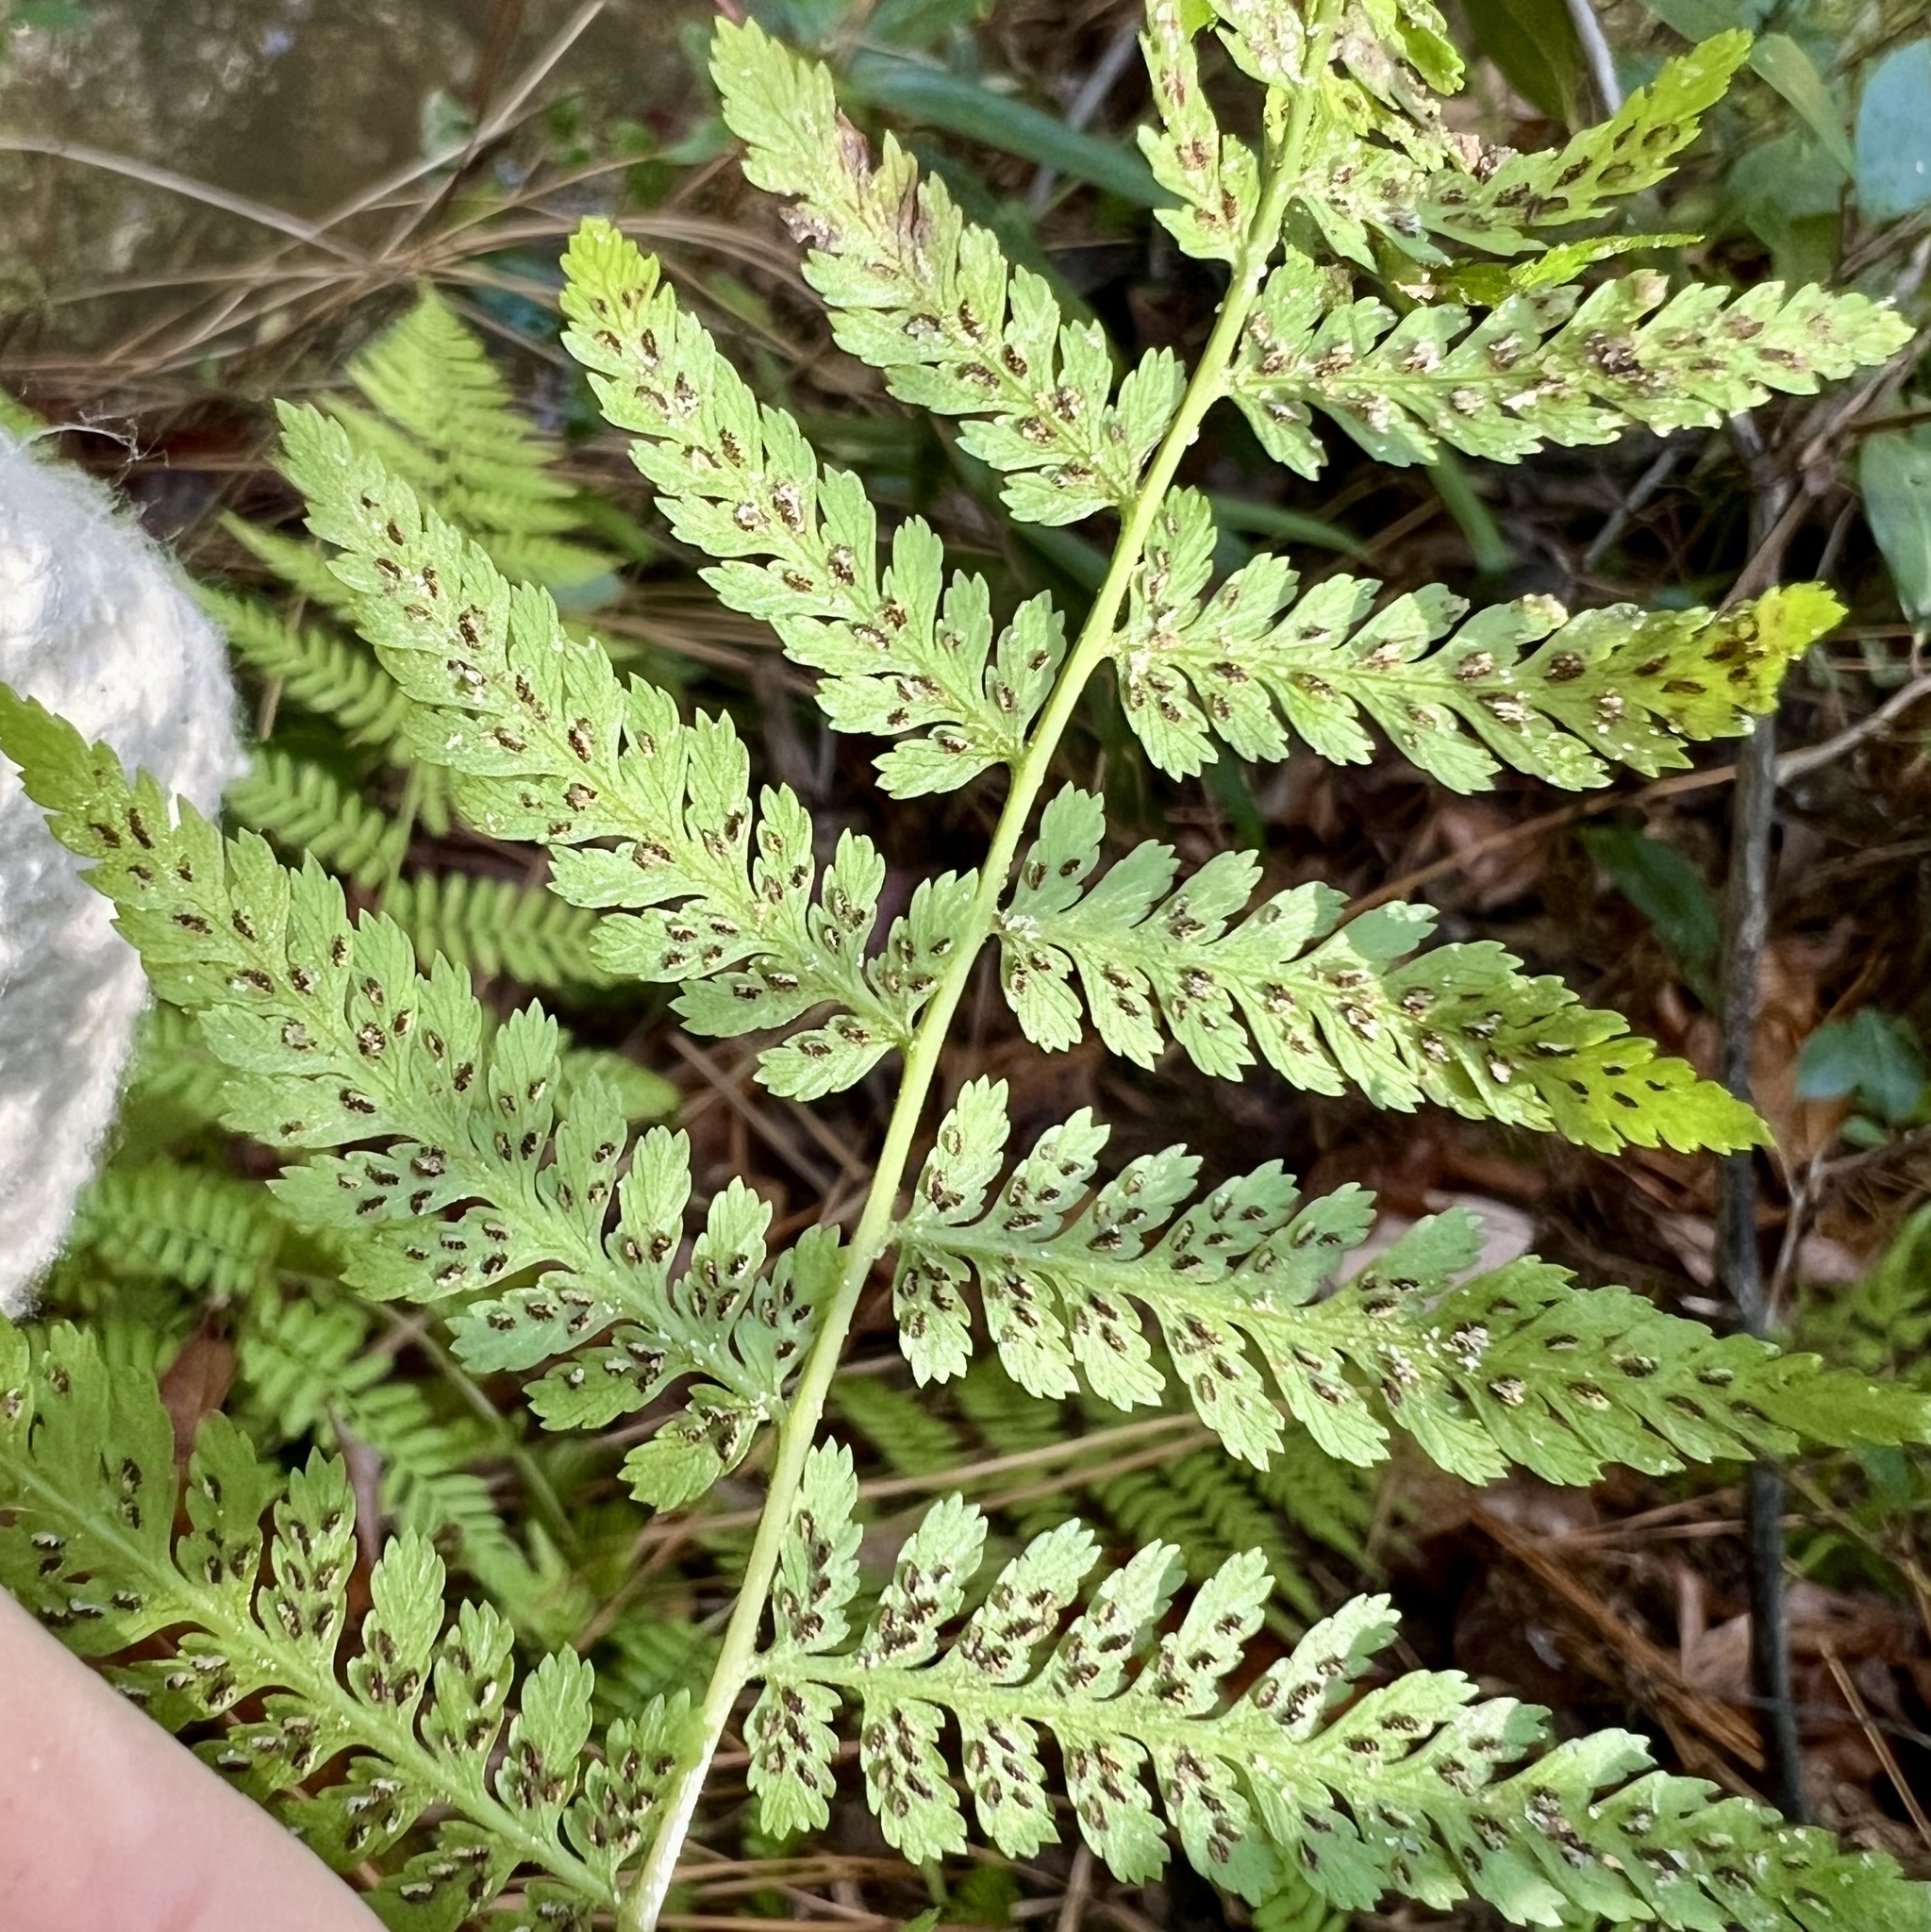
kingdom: Plantae
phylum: Tracheophyta
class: Polypodiopsida
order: Polypodiales
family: Athyriaceae
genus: Athyrium
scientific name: Athyrium asplenioides
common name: Southern lady fern
